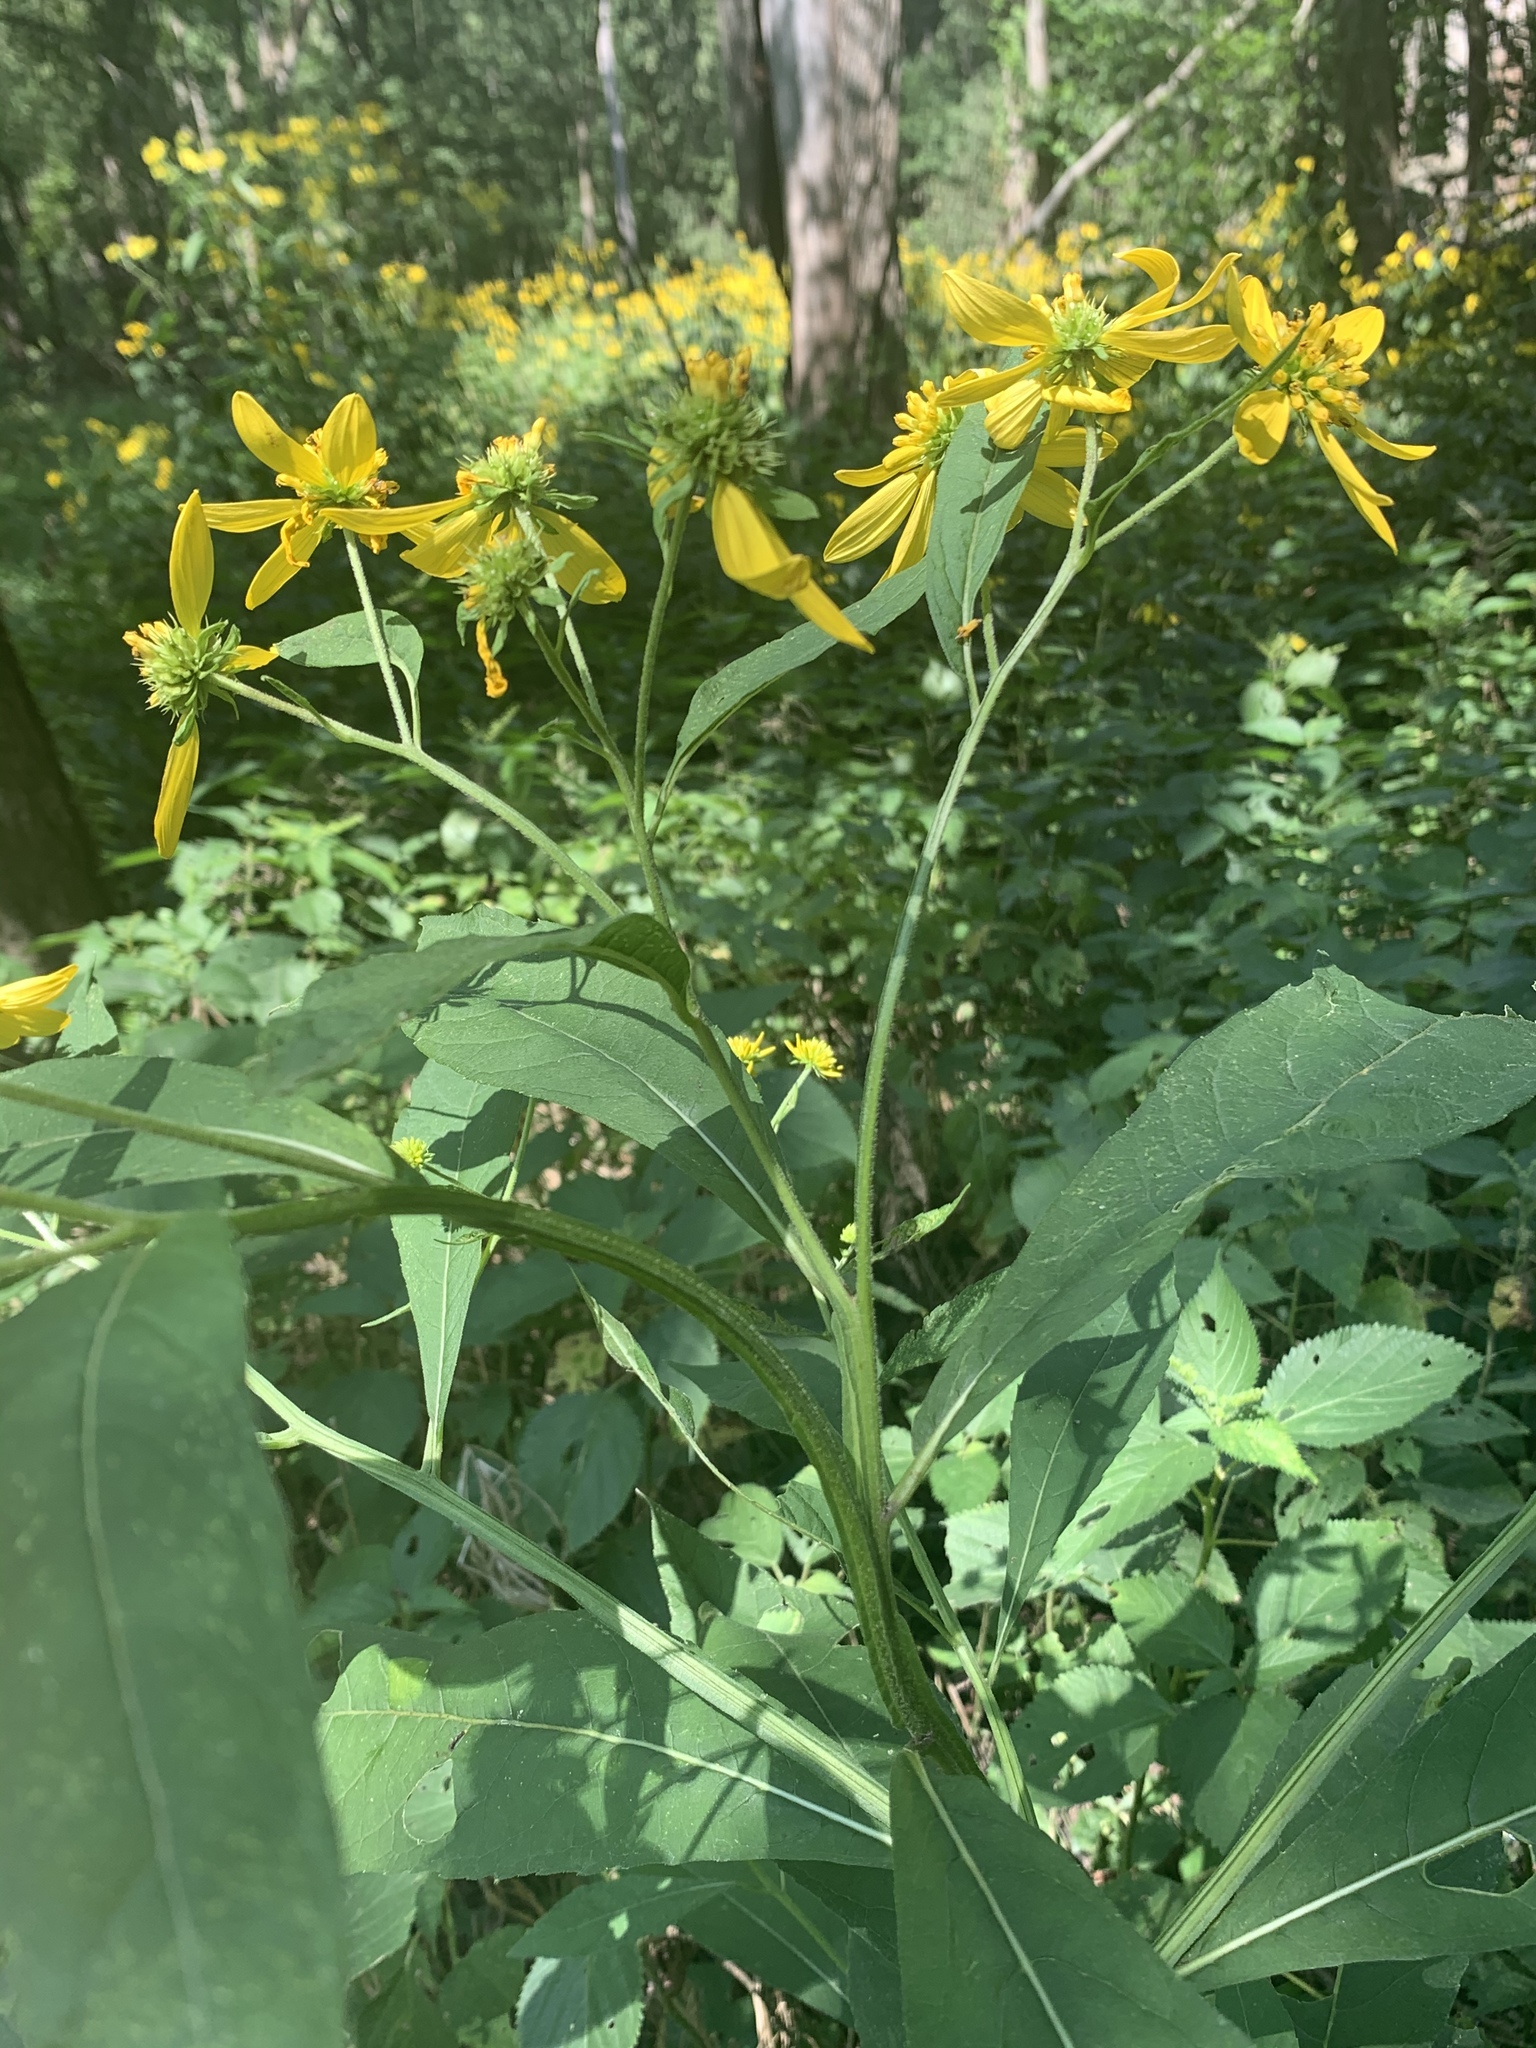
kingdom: Plantae
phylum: Tracheophyta
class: Magnoliopsida
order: Asterales
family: Asteraceae
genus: Verbesina
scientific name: Verbesina alternifolia
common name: Wingstem
